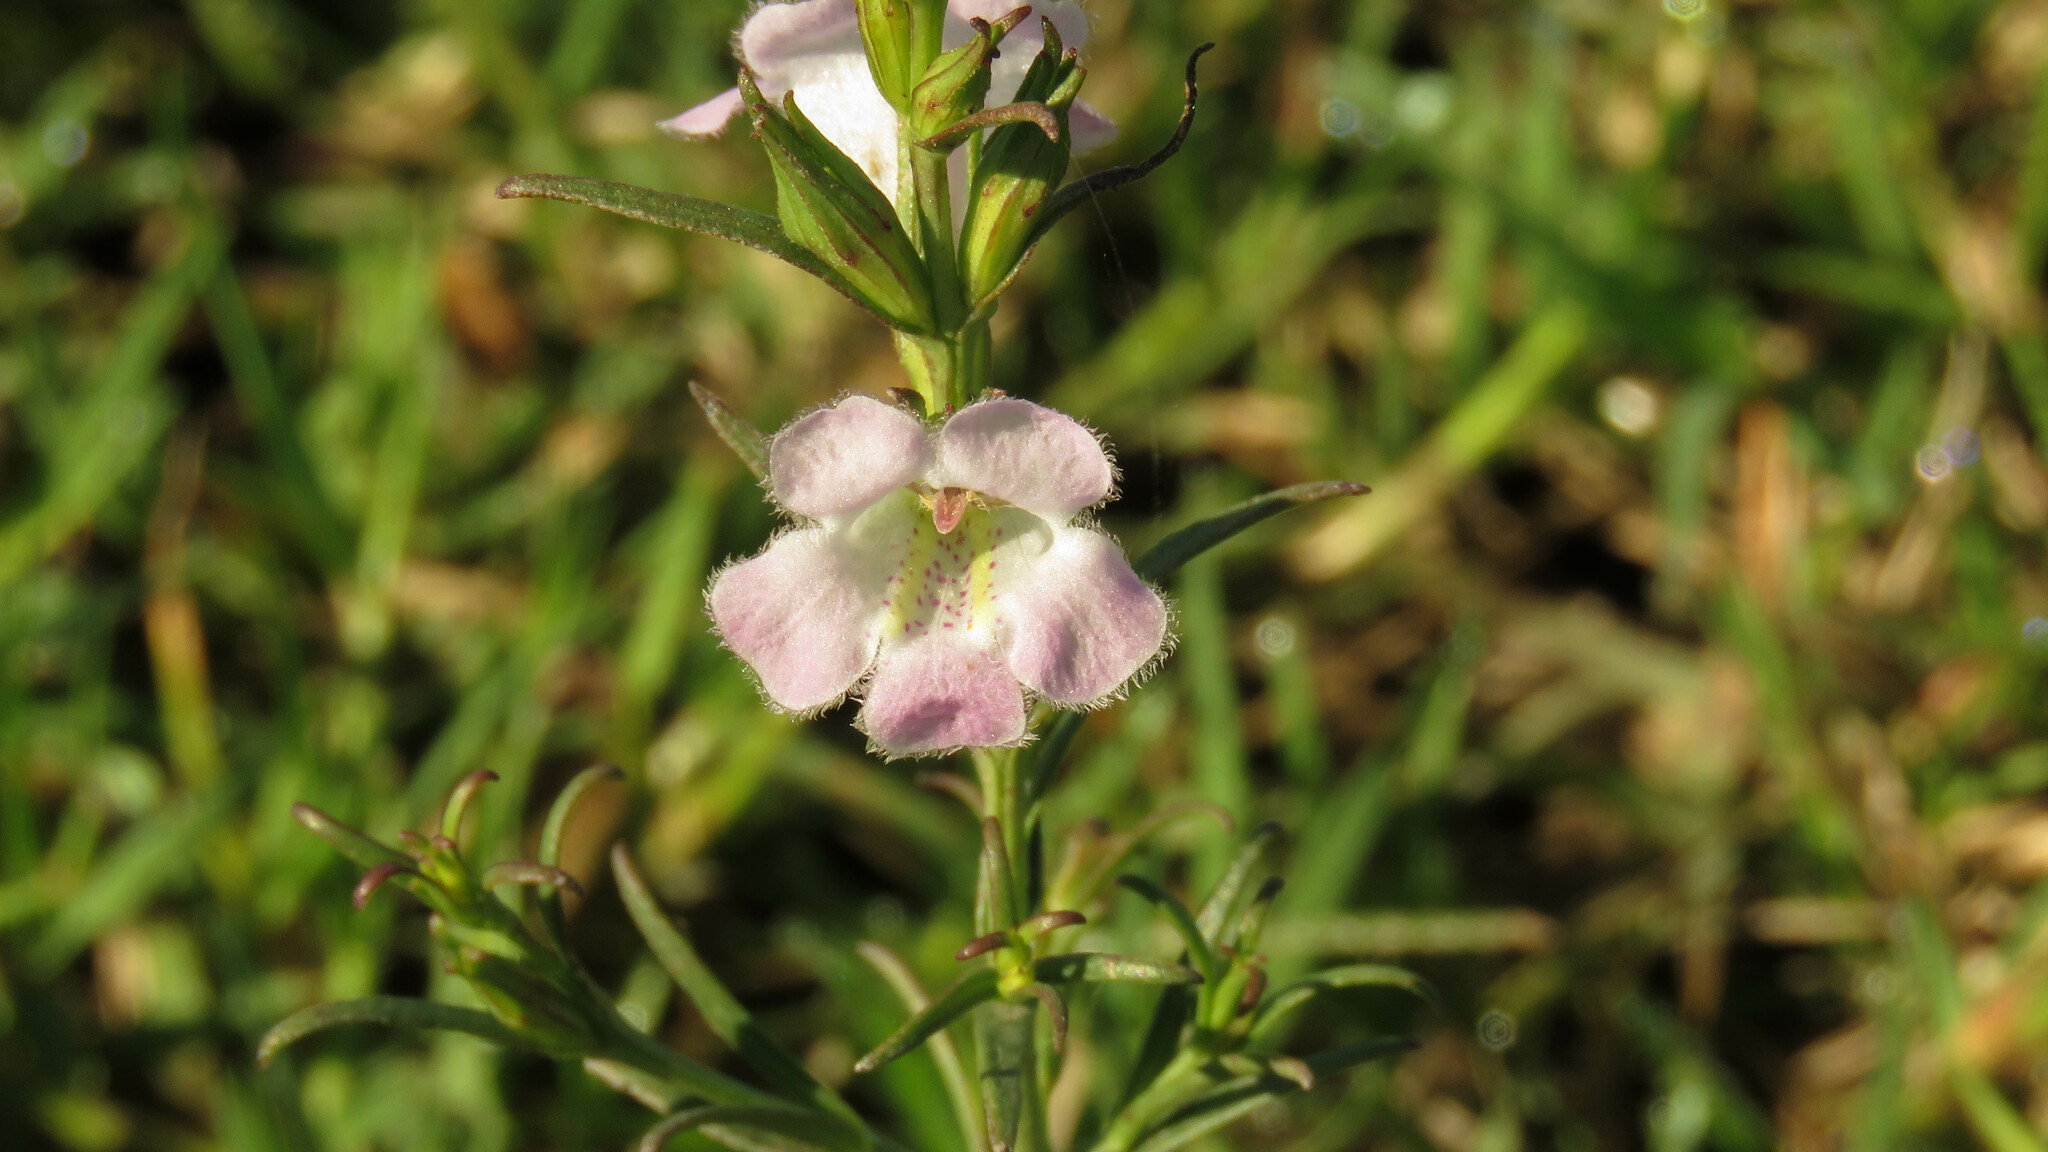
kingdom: Plantae
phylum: Tracheophyta
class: Magnoliopsida
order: Lamiales
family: Orobanchaceae
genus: Agalinis
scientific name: Agalinis communis
